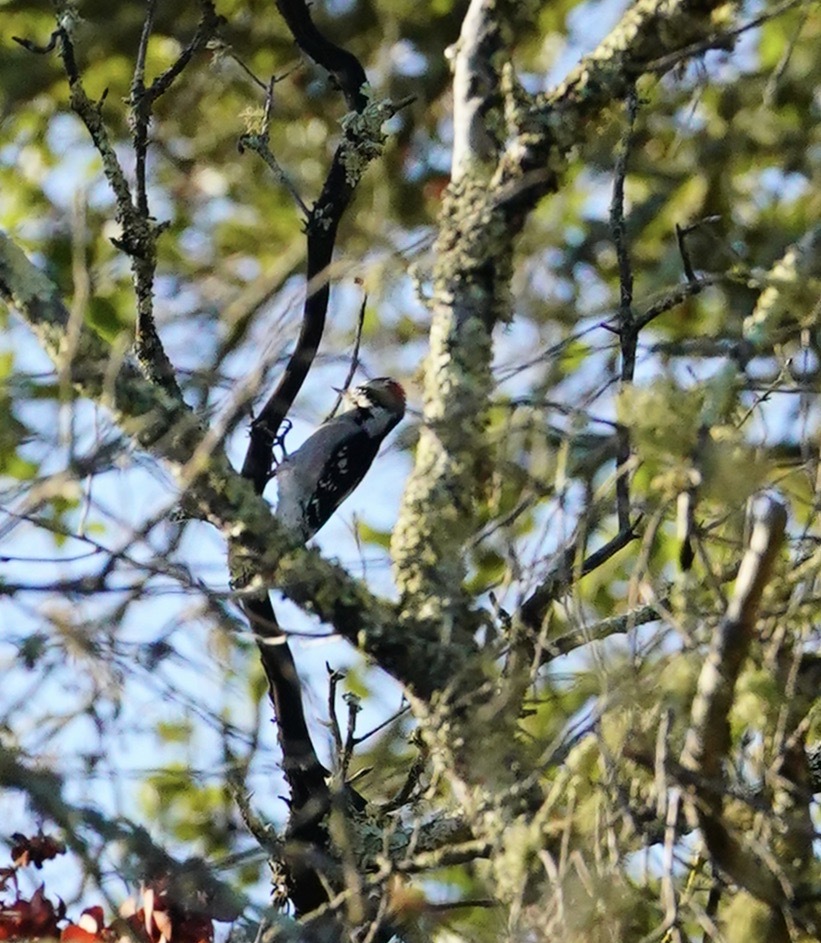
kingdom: Animalia
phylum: Chordata
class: Aves
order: Piciformes
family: Picidae
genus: Dryobates
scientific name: Dryobates pubescens
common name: Downy woodpecker
